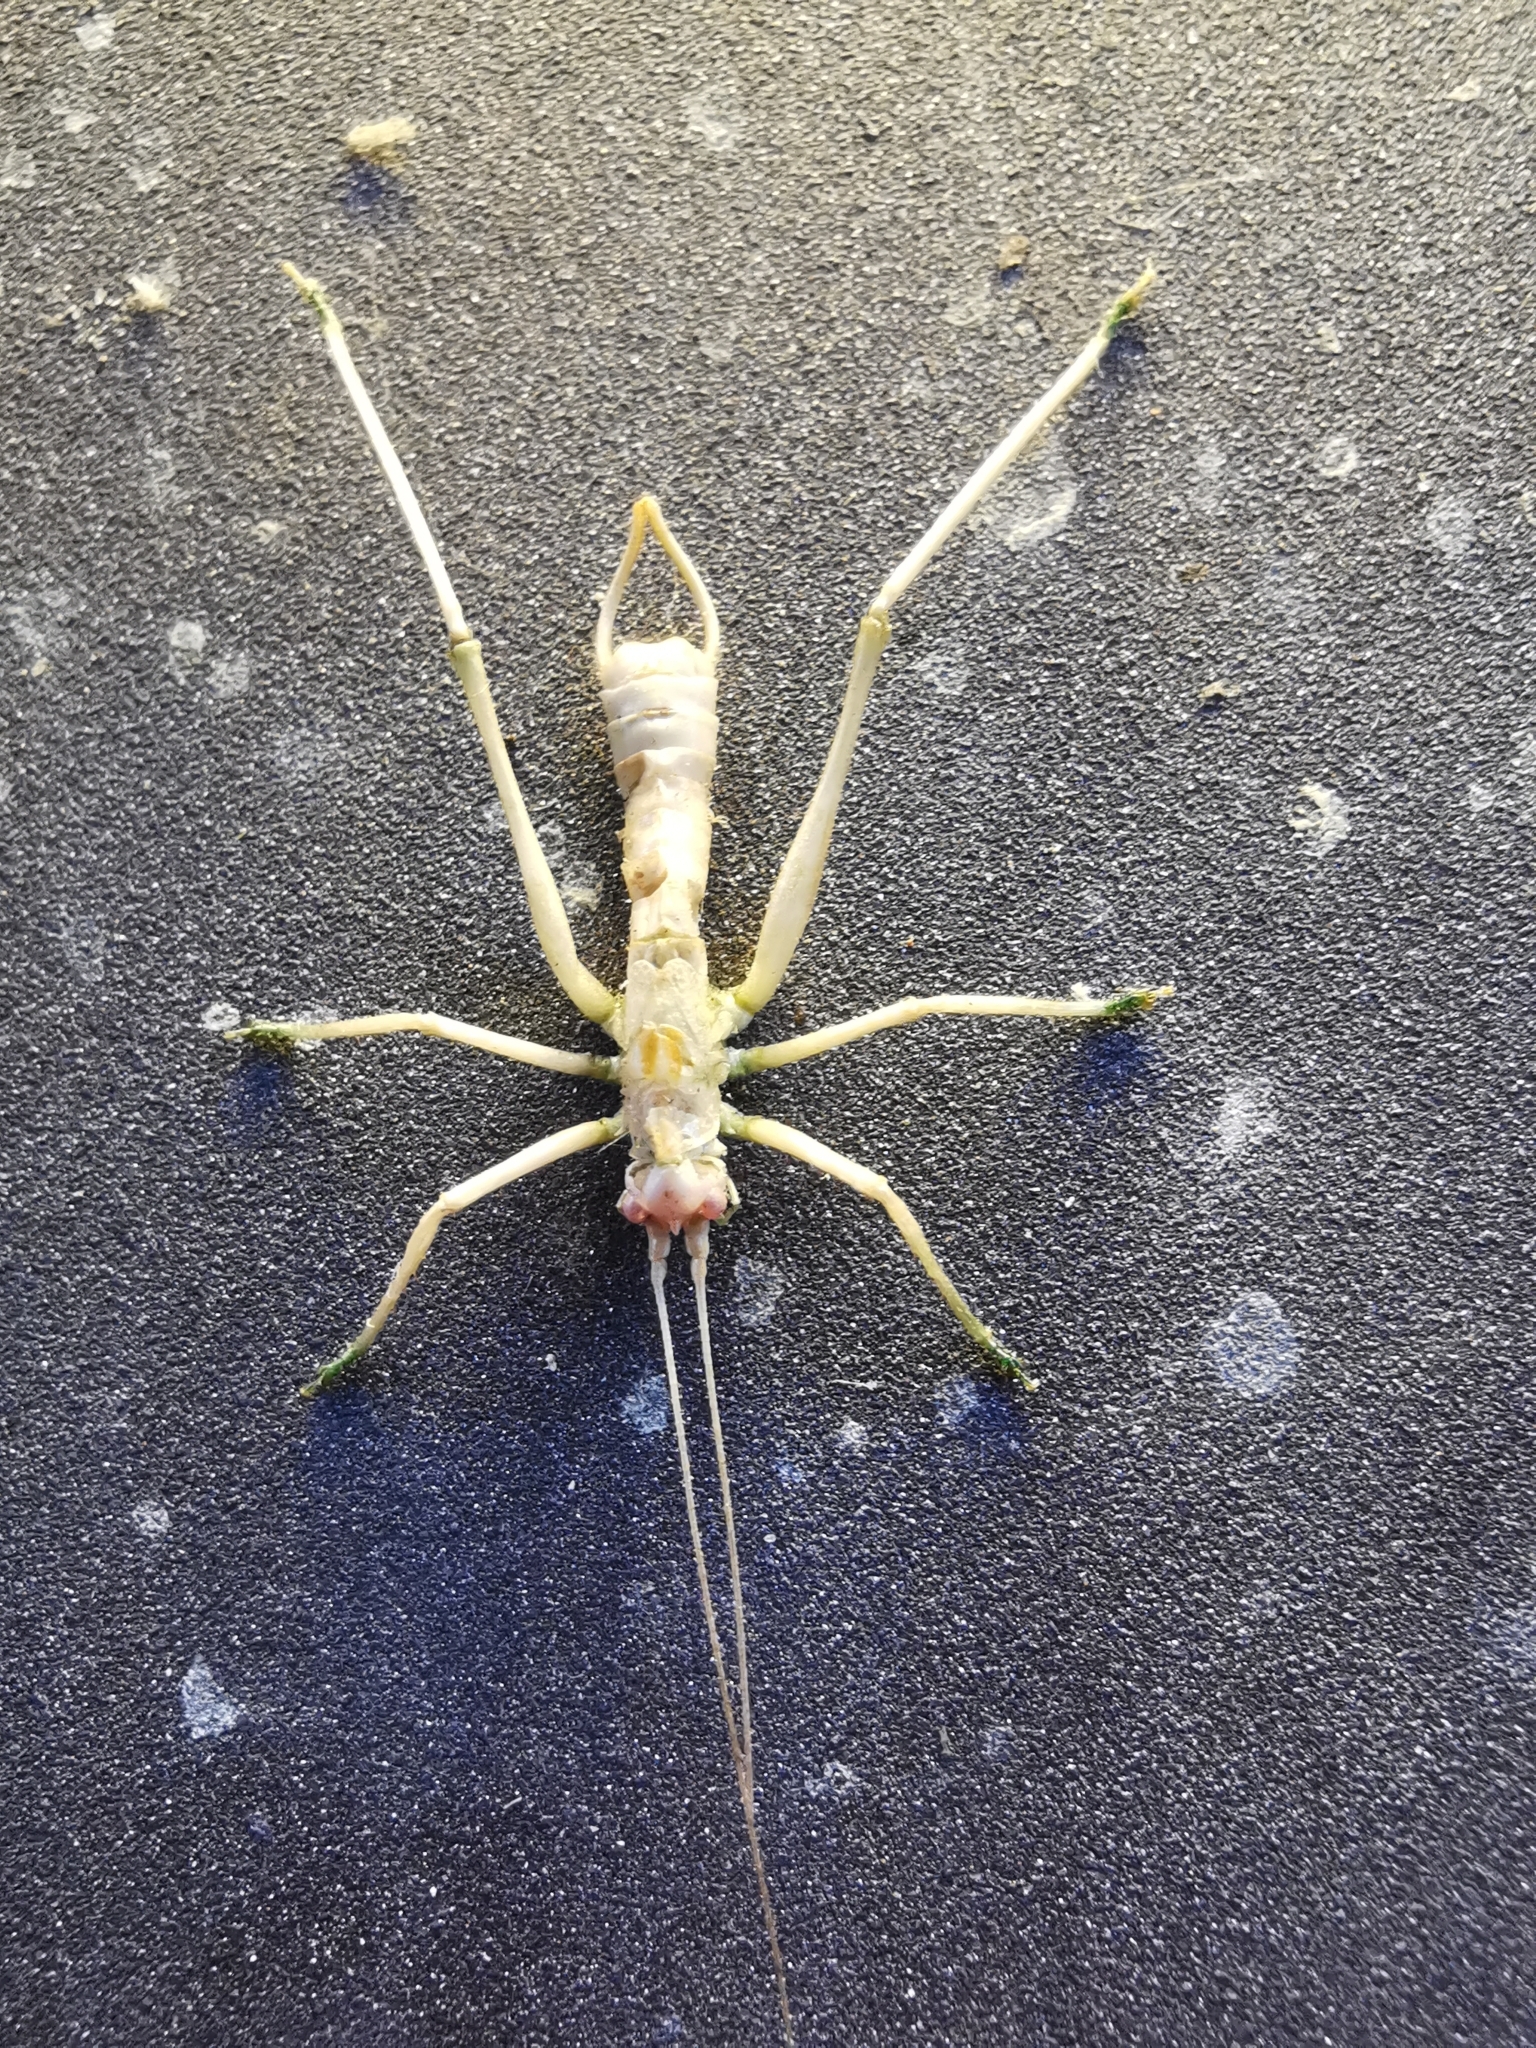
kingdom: Animalia
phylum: Arthropoda
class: Insecta
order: Orthoptera
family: Tettigoniidae
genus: Meconema
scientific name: Meconema meridionale
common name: Southern oak bush-cricket
